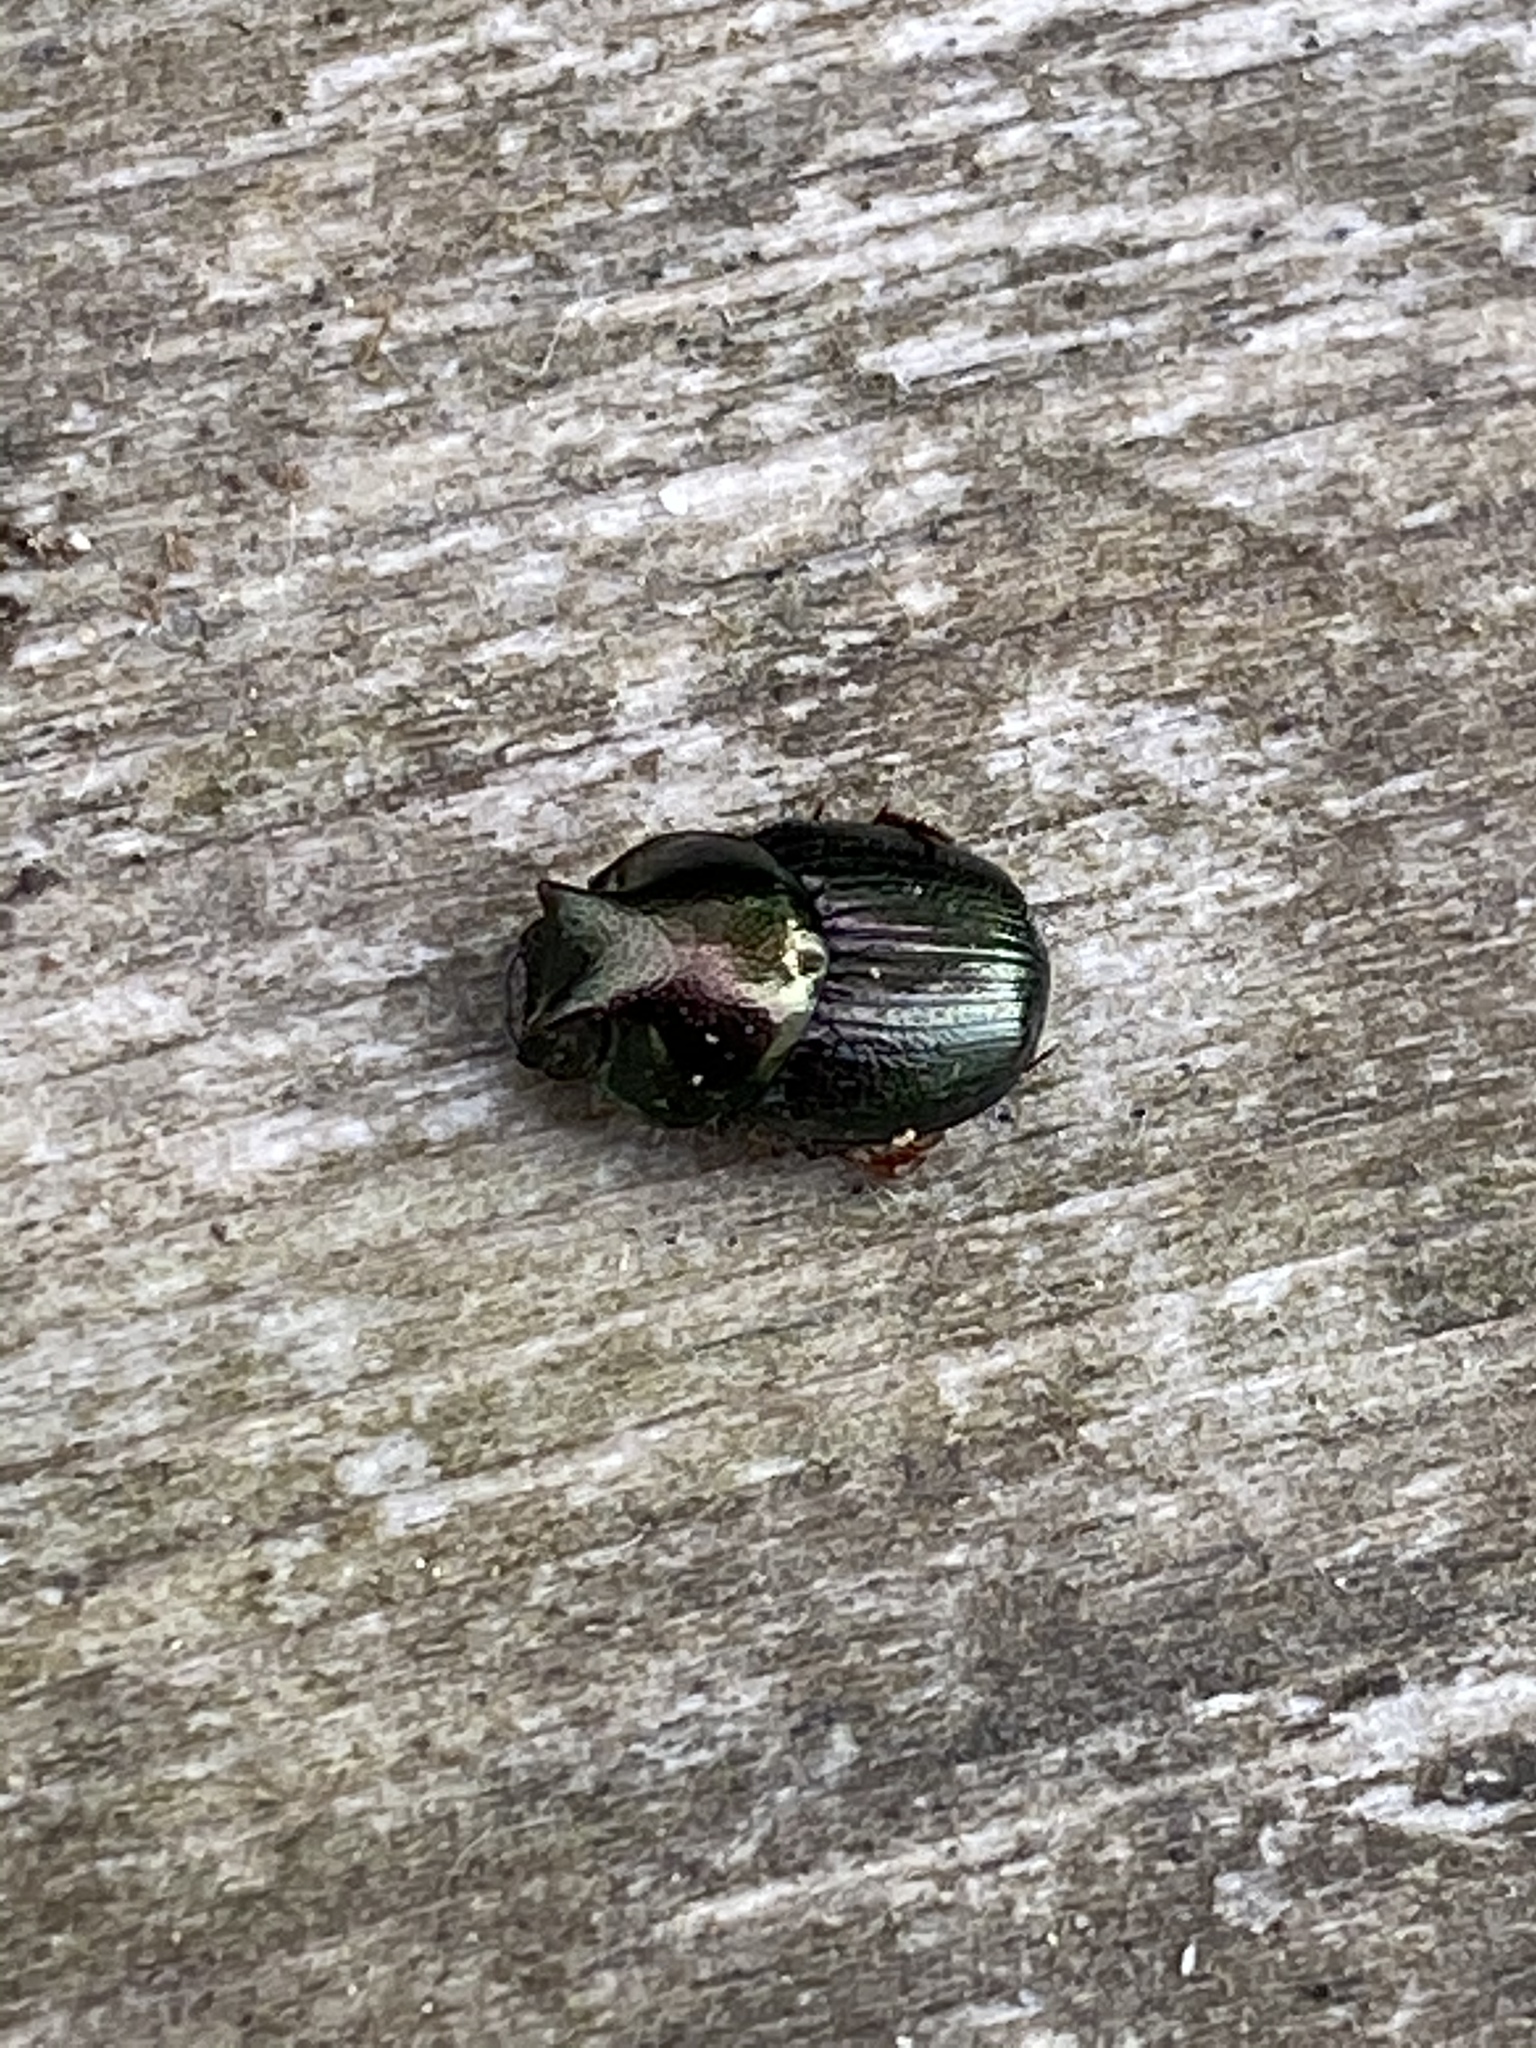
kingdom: Animalia
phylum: Arthropoda
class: Insecta
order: Coleoptera
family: Scarabaeidae
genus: Onthophagus
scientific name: Onthophagus orpheus
